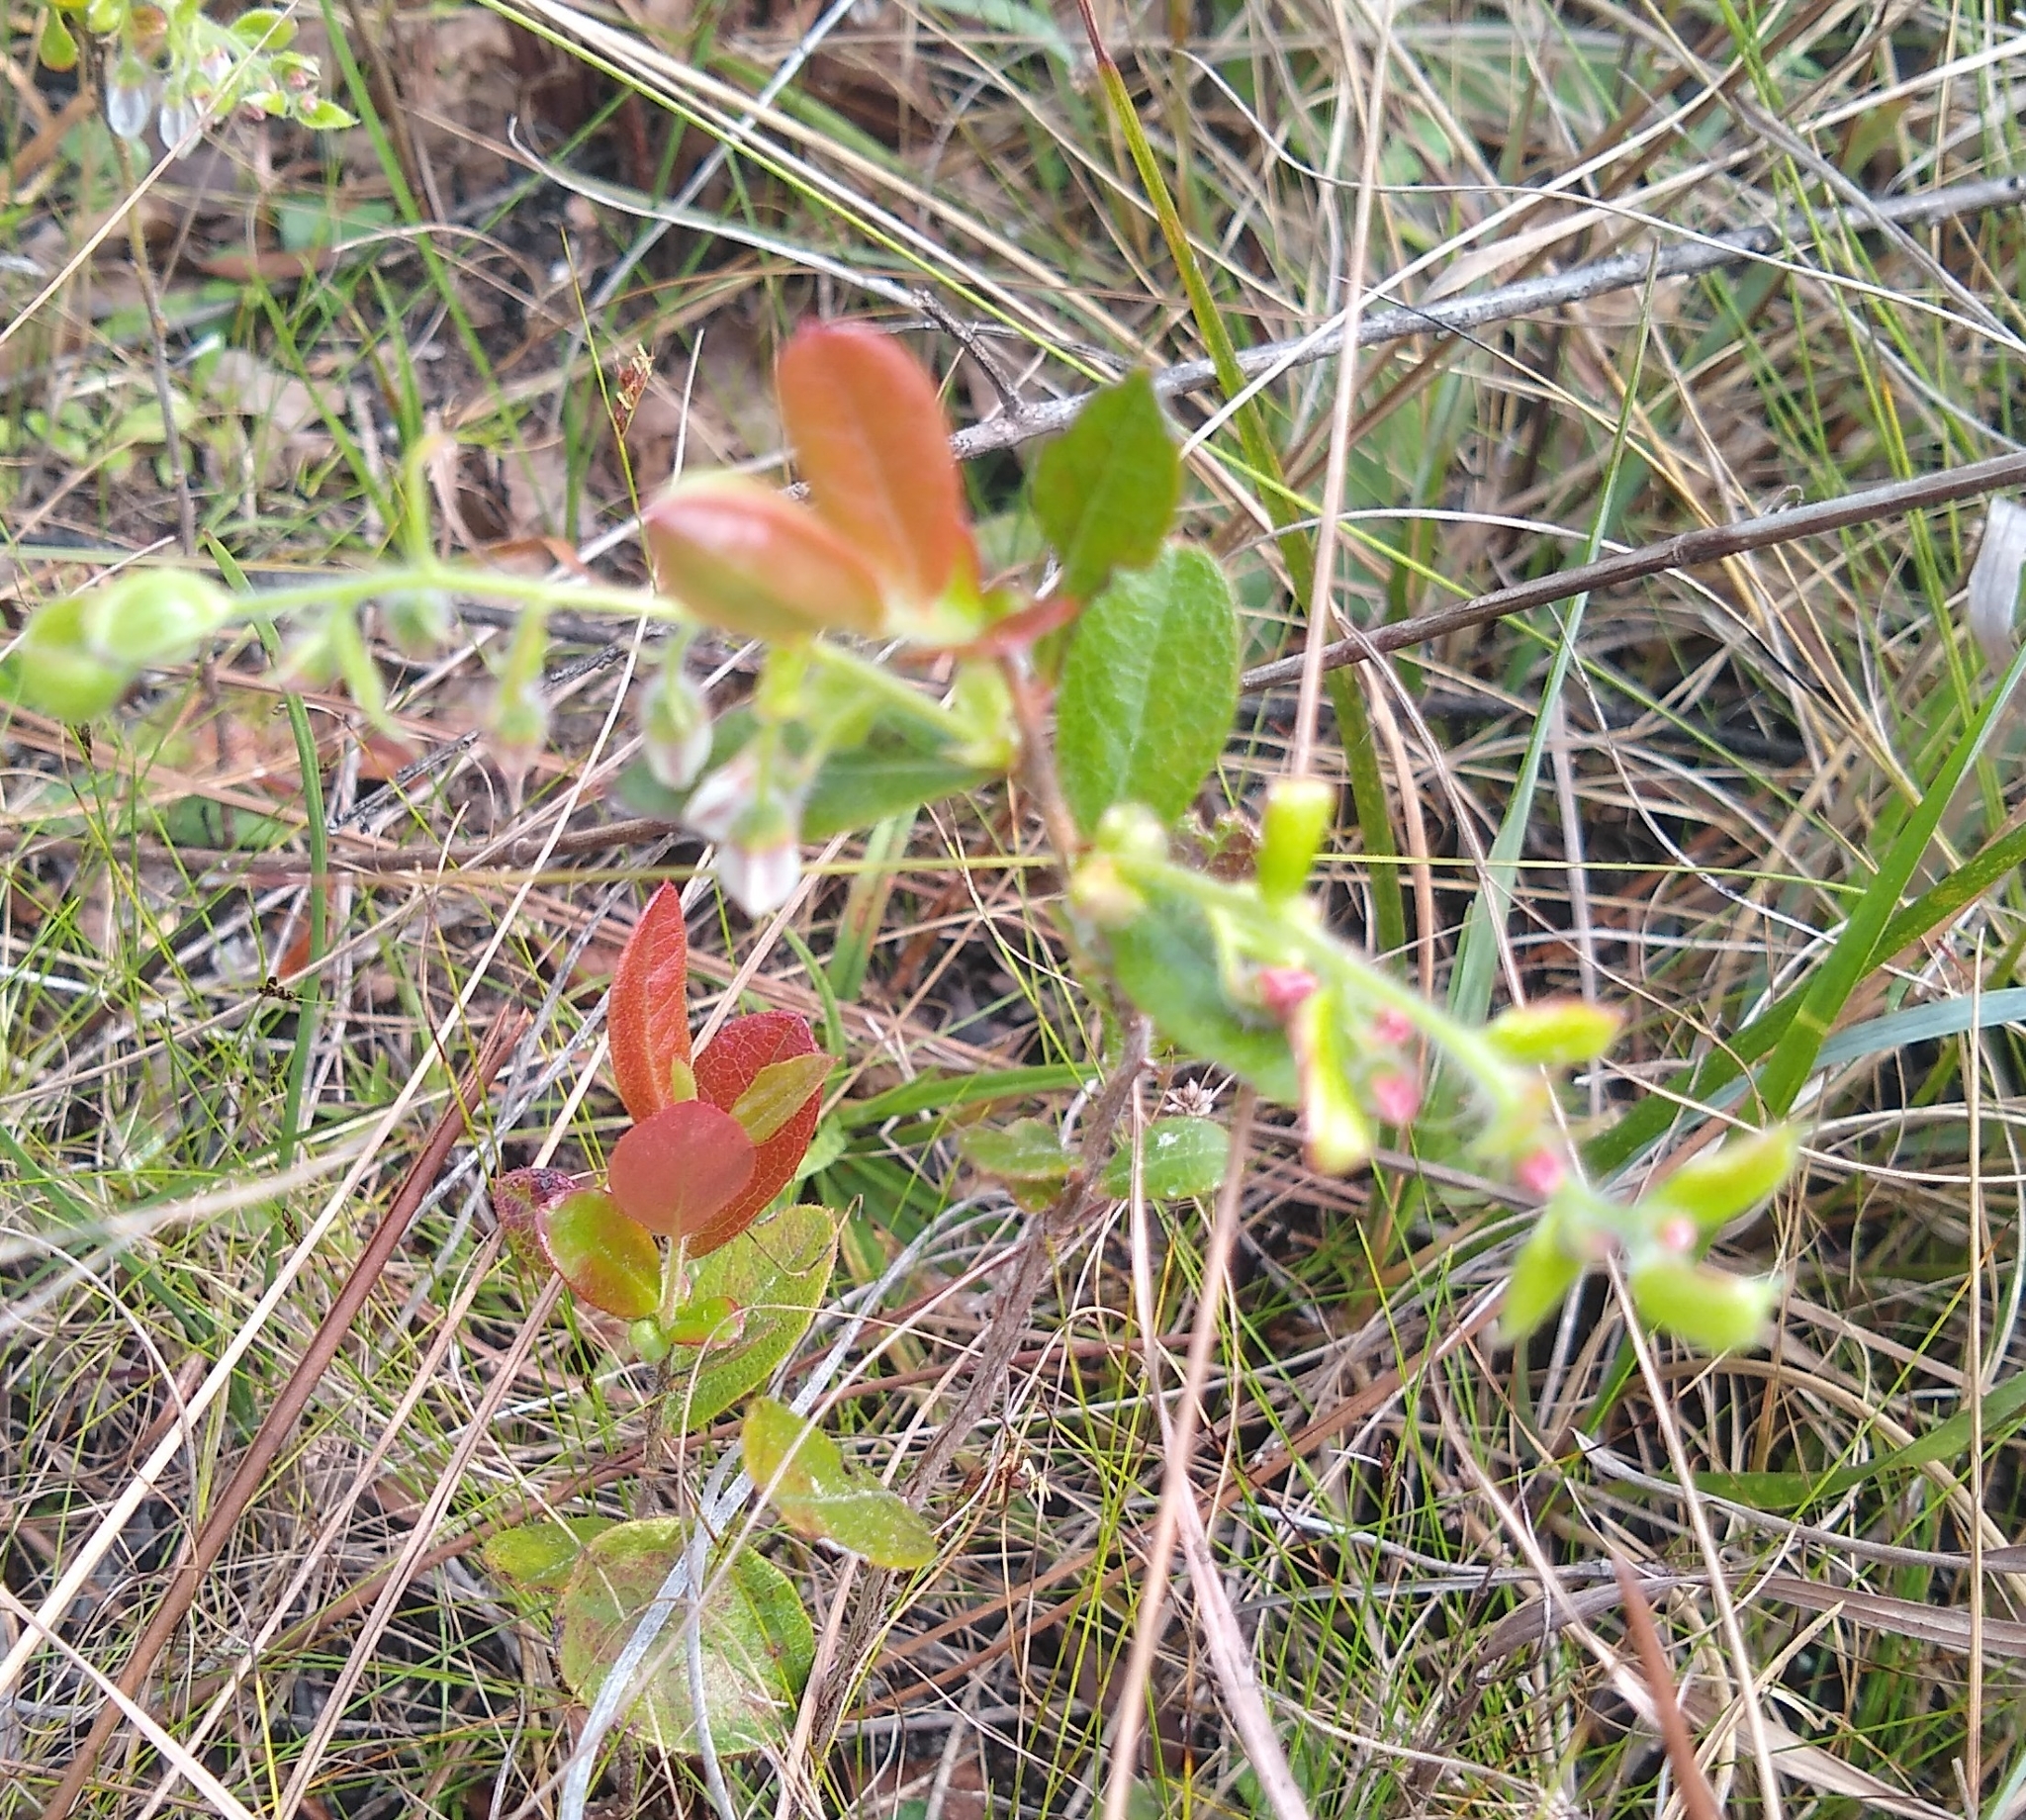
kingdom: Plantae
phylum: Tracheophyta
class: Magnoliopsida
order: Ericales
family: Ericaceae
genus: Gaylussacia
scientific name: Gaylussacia mosieri
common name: Hirsute huckleberry
